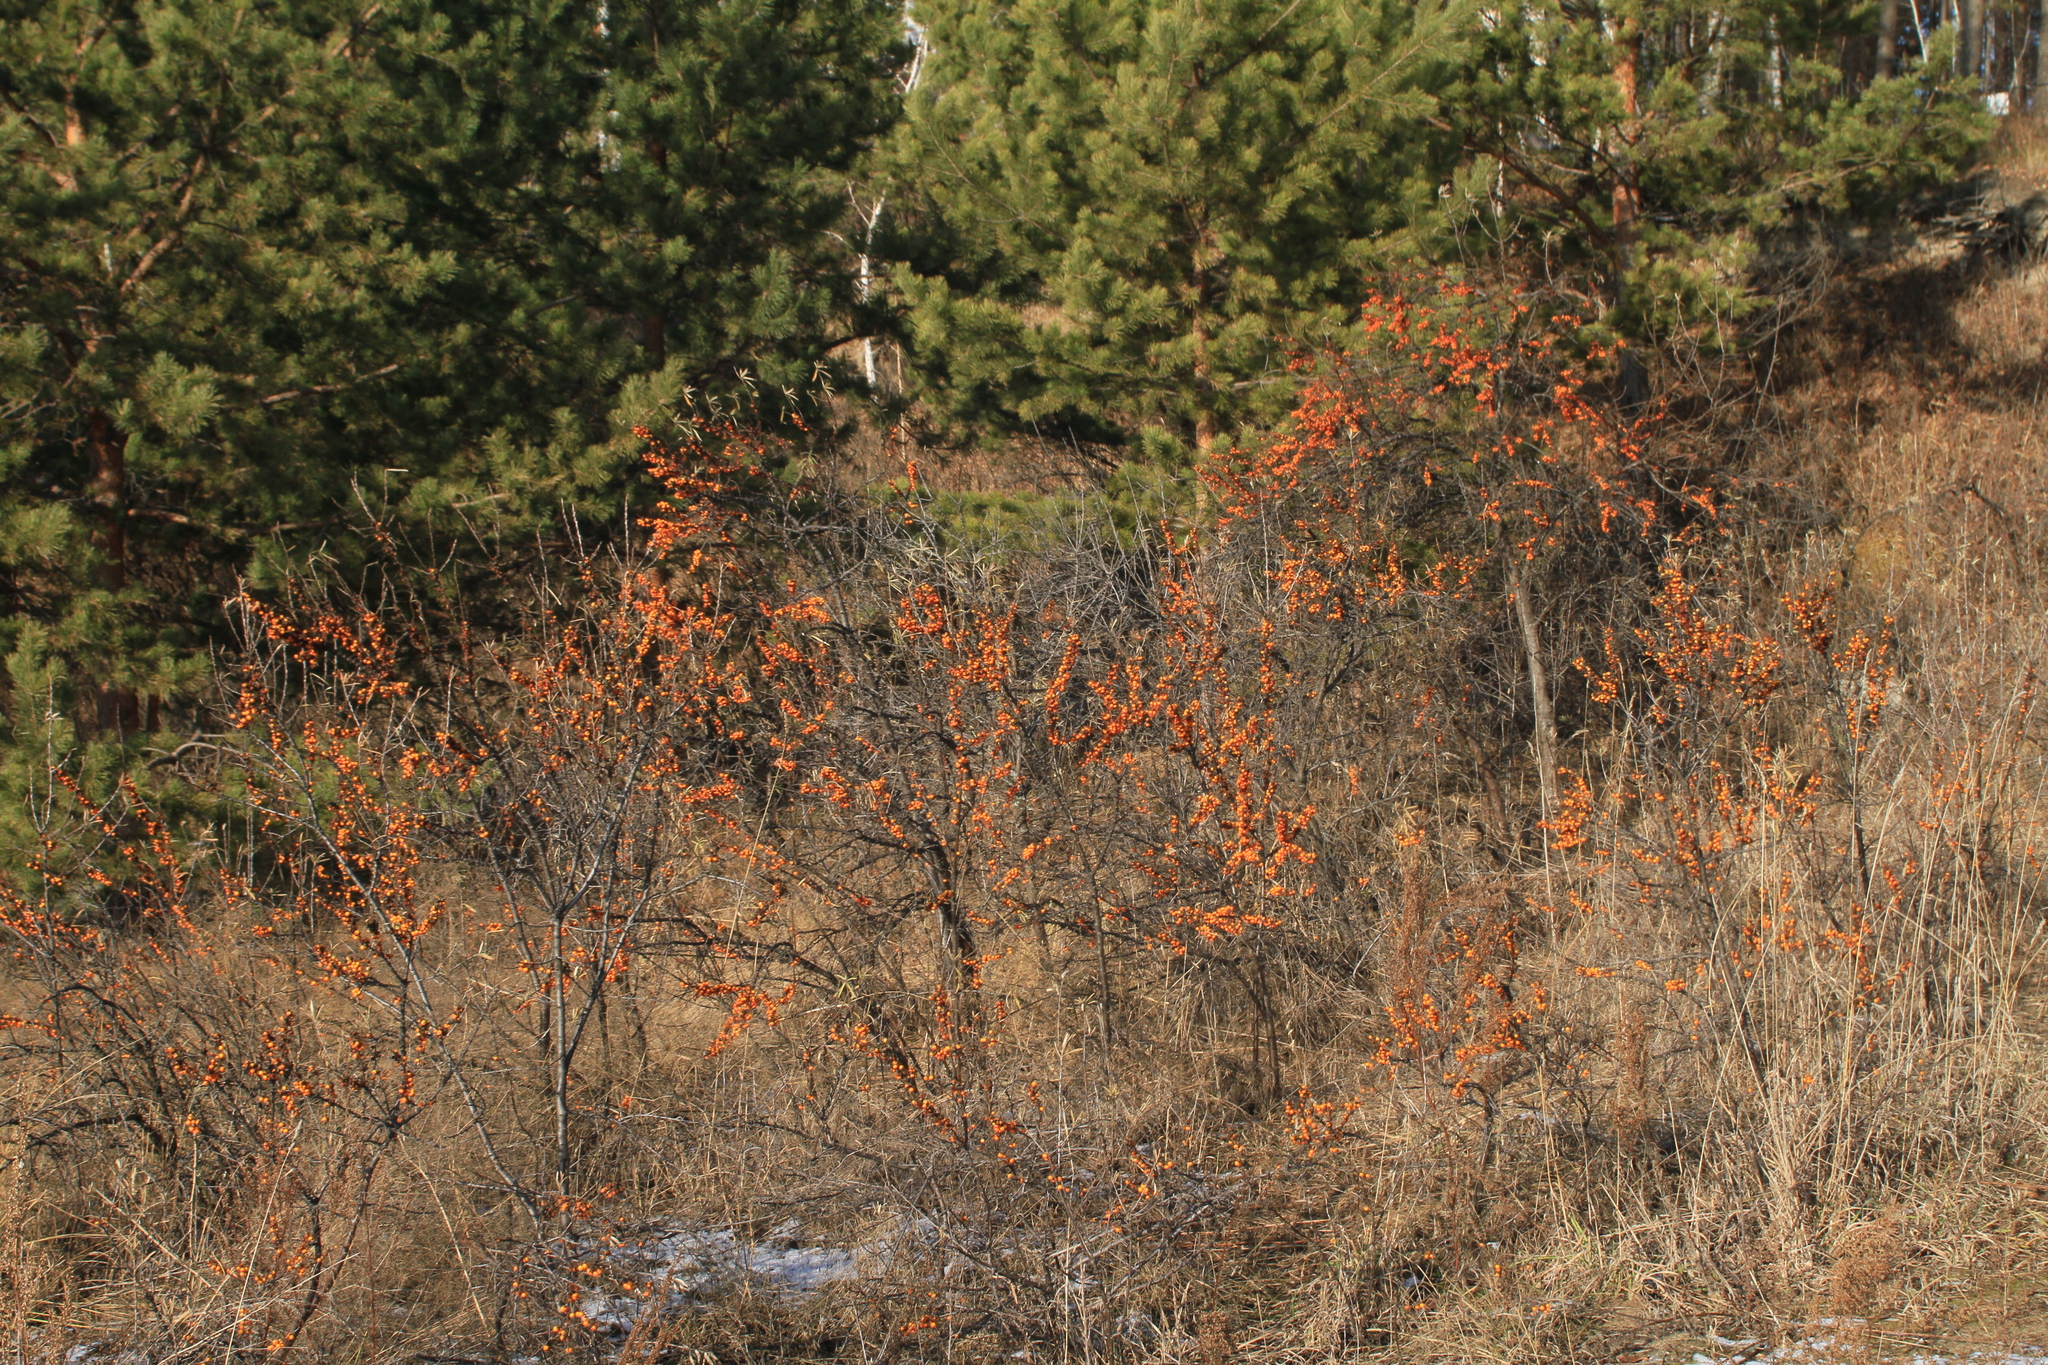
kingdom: Plantae
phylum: Tracheophyta
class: Magnoliopsida
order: Rosales
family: Elaeagnaceae
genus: Hippophae
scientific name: Hippophae rhamnoides
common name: Sea-buckthorn
